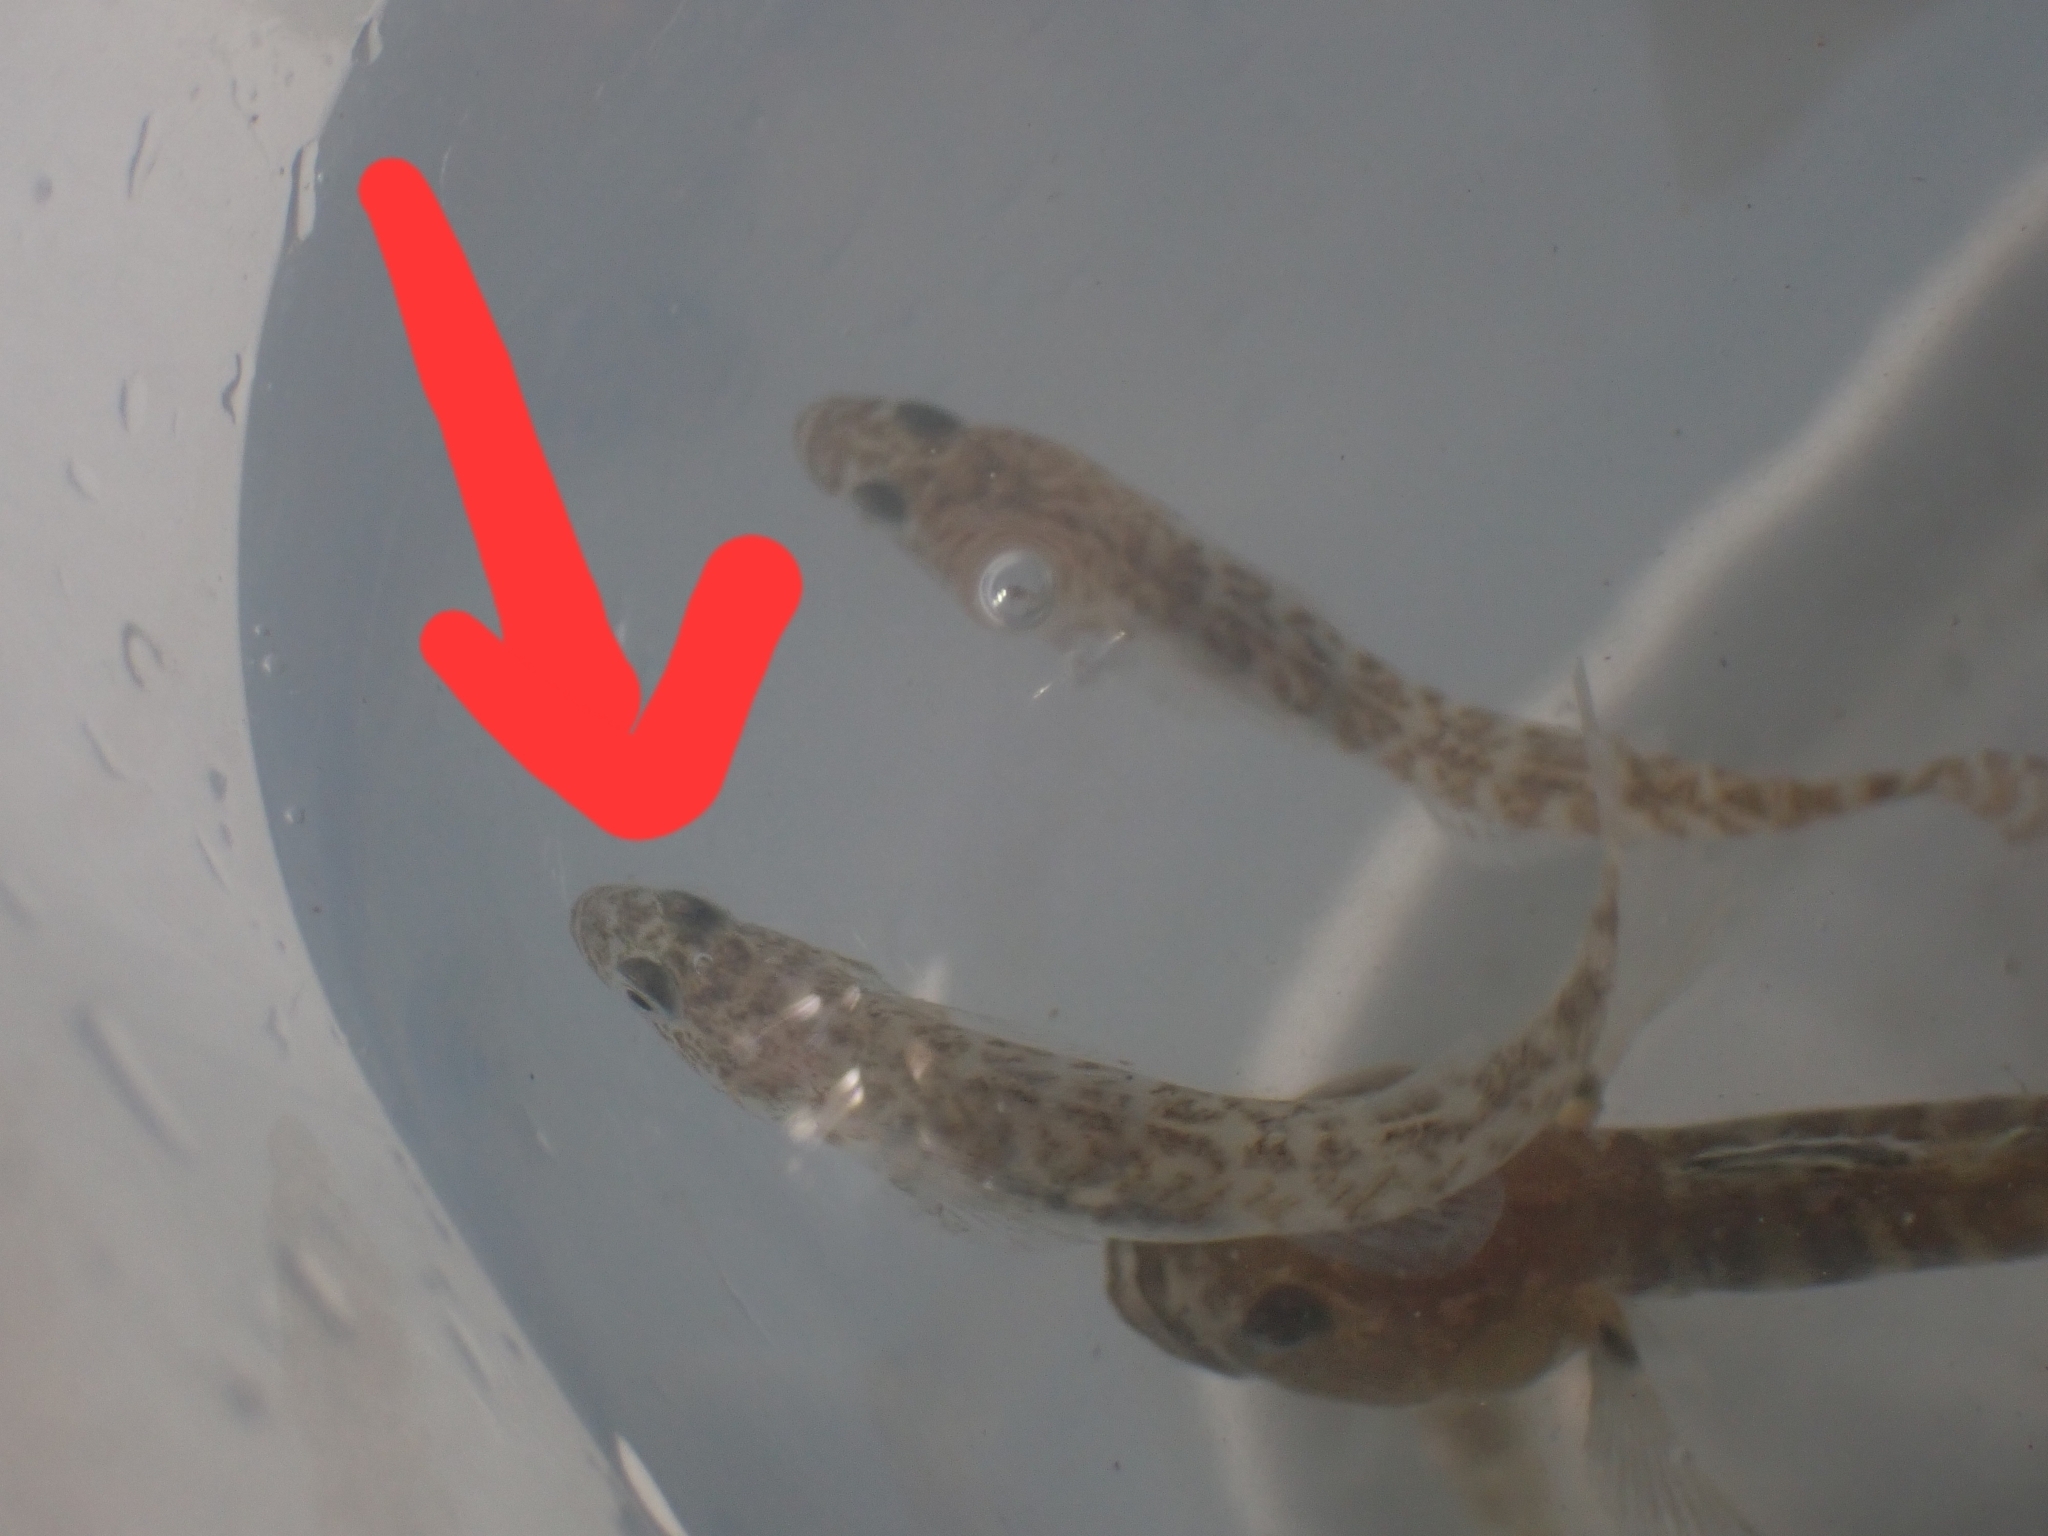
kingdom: Animalia
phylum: Chordata
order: Perciformes
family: Thalasseleotrididae
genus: Grahamichthys
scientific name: Grahamichthys radiata
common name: Graham's gudgeon
